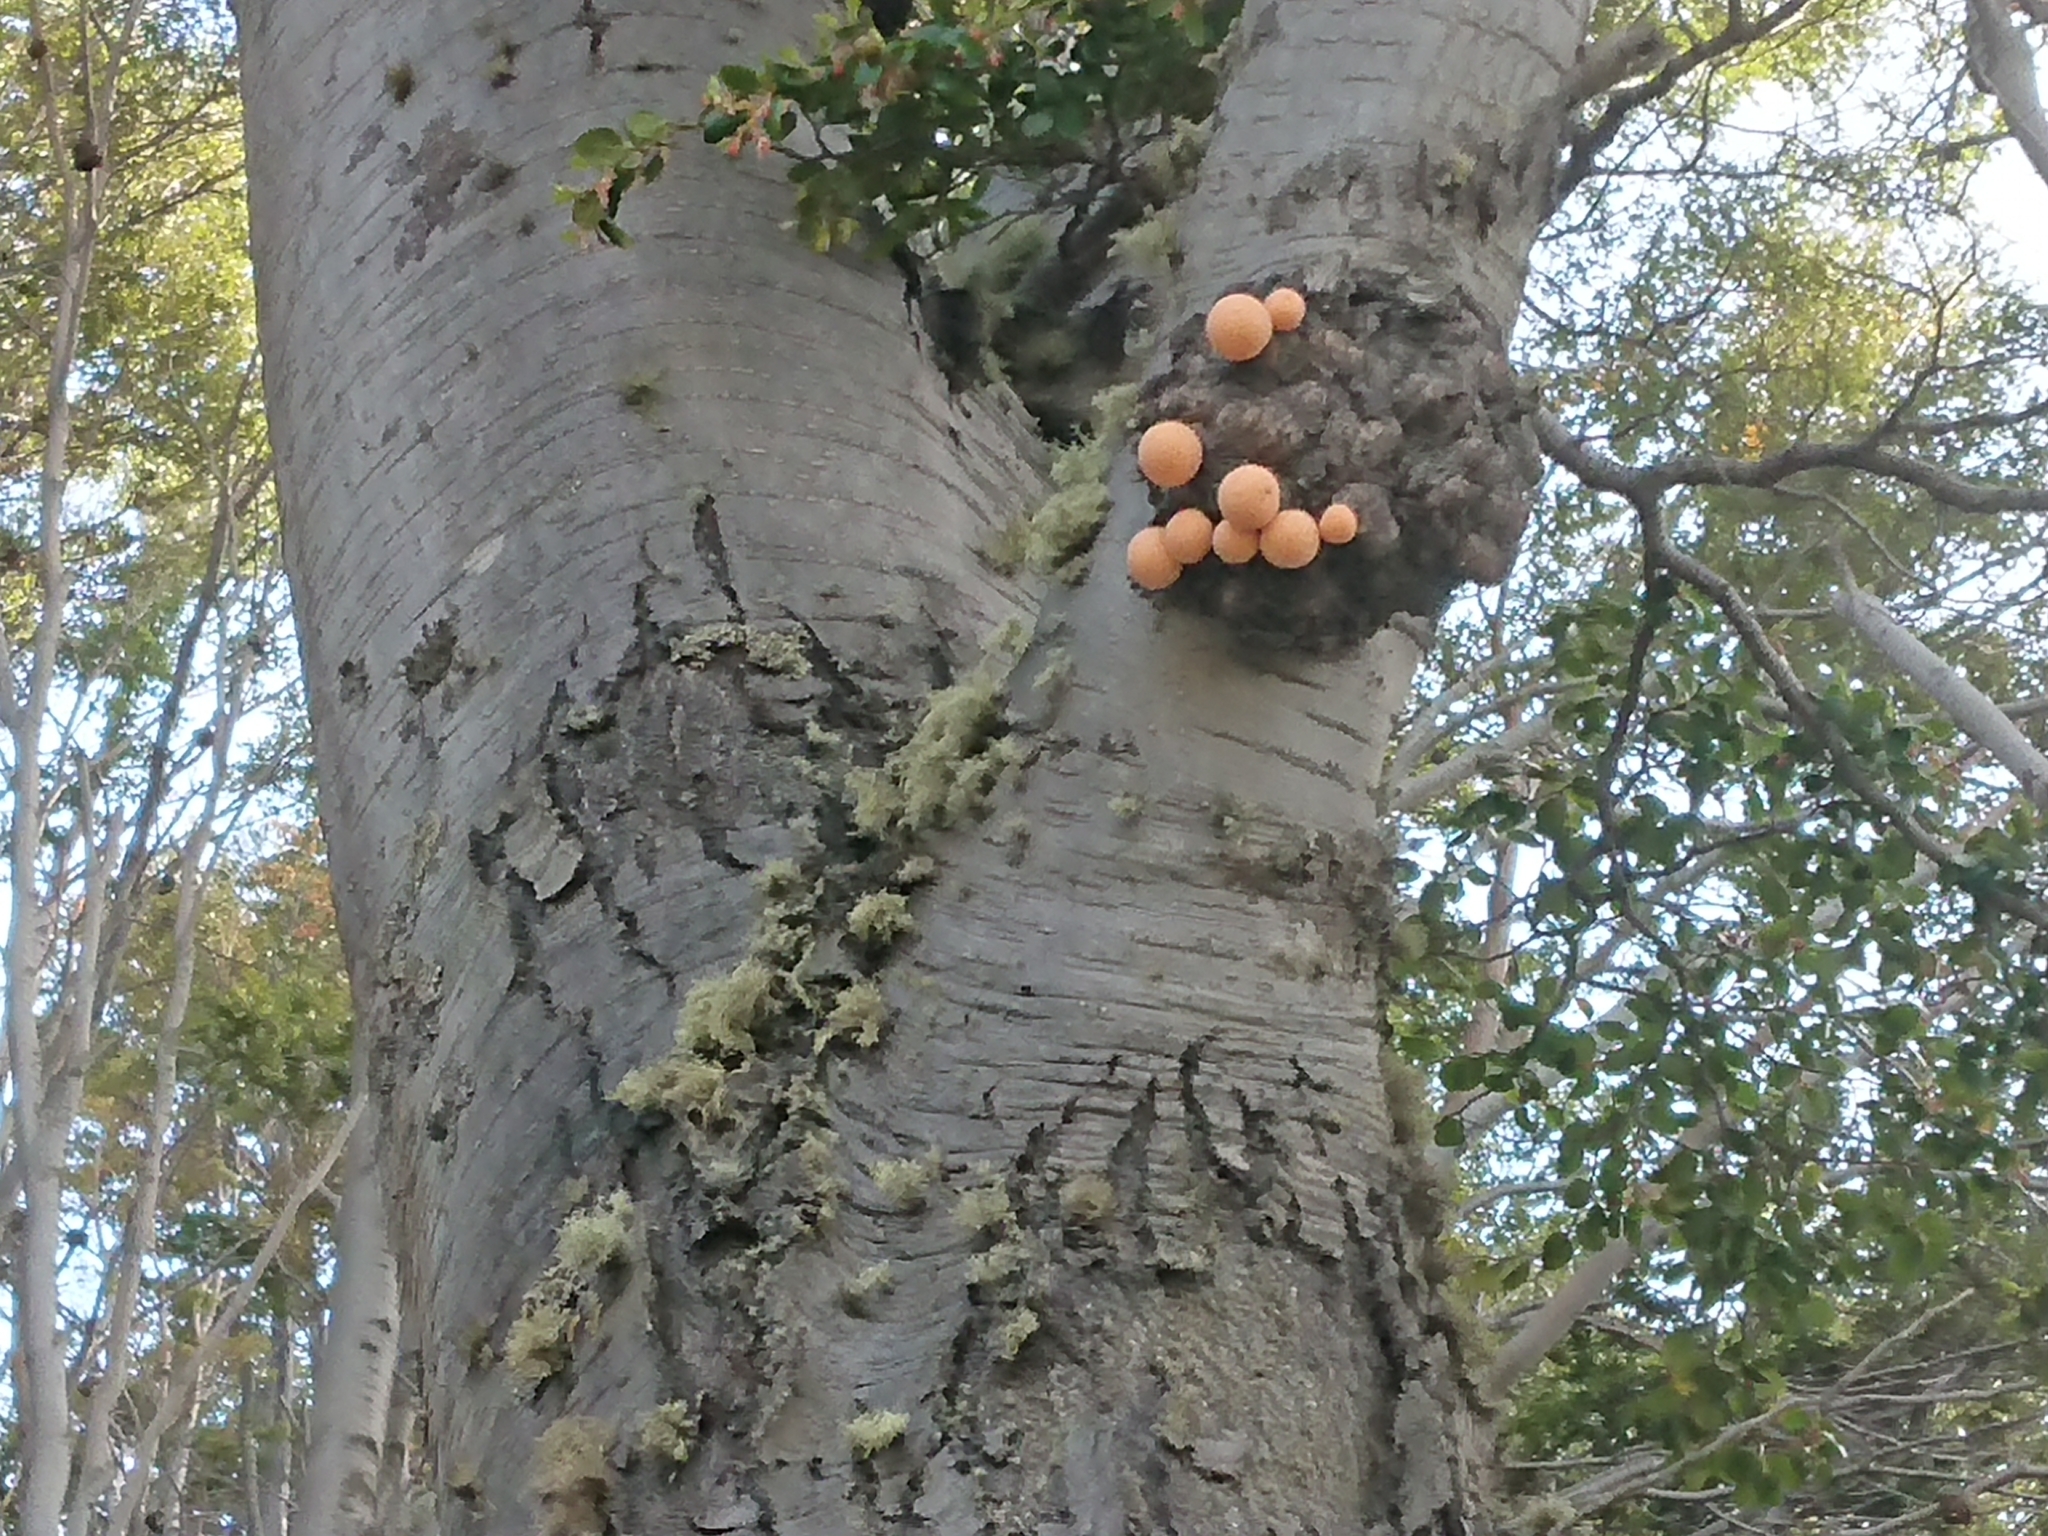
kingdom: Fungi
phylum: Ascomycota
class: Leotiomycetes
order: Cyttariales
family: Cyttariaceae
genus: Cyttaria
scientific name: Cyttaria hariotii
